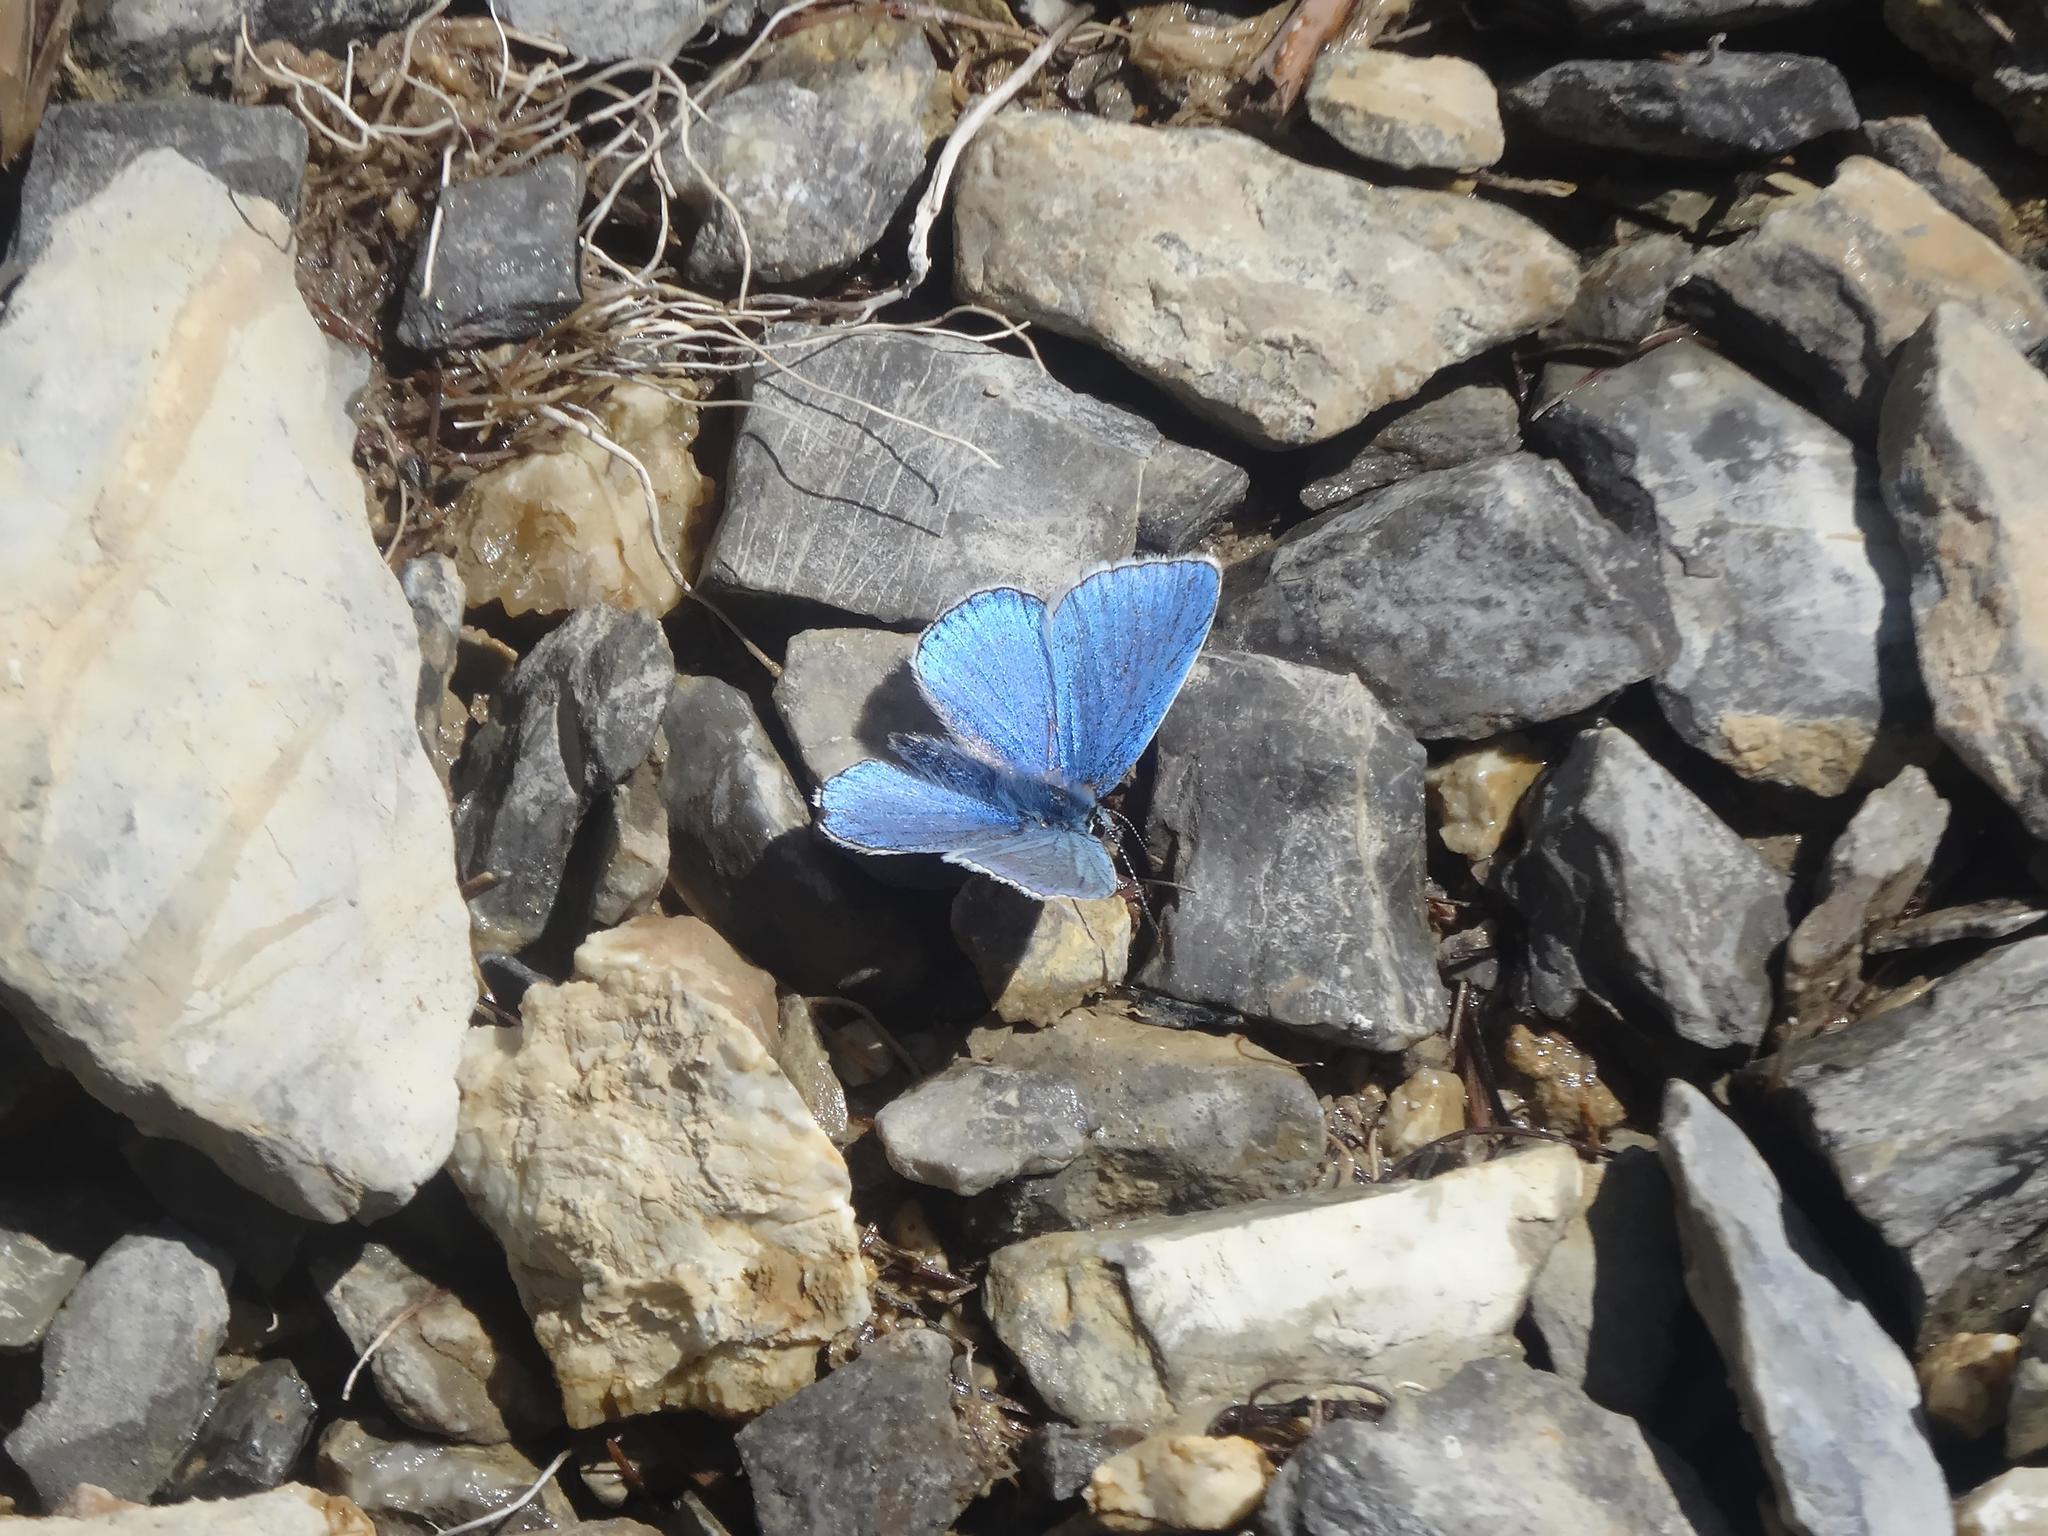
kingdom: Animalia
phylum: Arthropoda
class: Insecta
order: Lepidoptera
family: Lycaenidae
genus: Lysandra
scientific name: Lysandra bellargus
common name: Adonis blue
